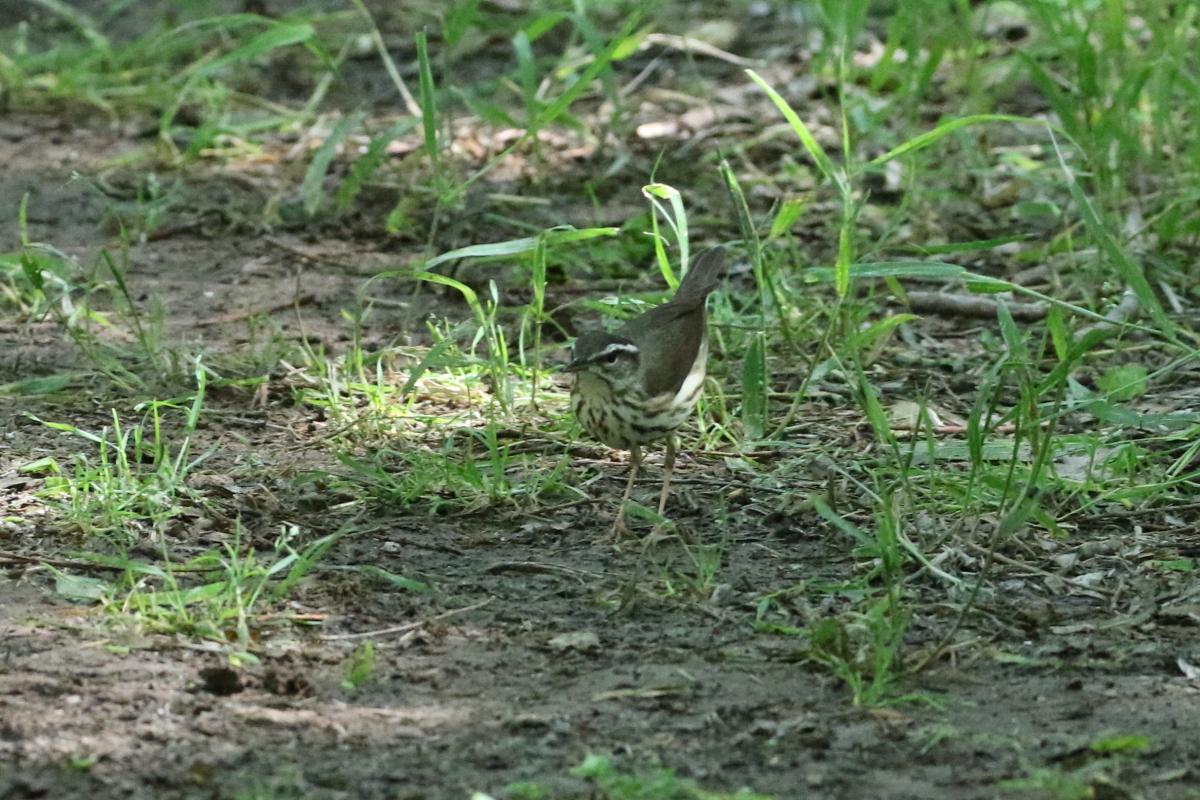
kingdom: Animalia
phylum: Chordata
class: Aves
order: Passeriformes
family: Parulidae
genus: Parkesia
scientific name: Parkesia motacilla
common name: Louisiana waterthrush
